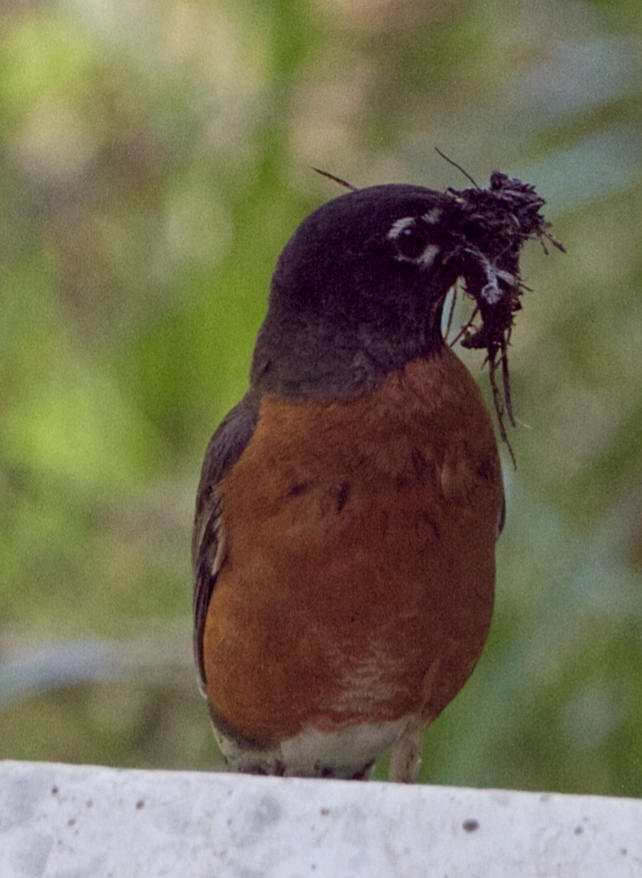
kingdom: Animalia
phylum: Chordata
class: Aves
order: Passeriformes
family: Turdidae
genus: Turdus
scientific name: Turdus migratorius
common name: American robin
